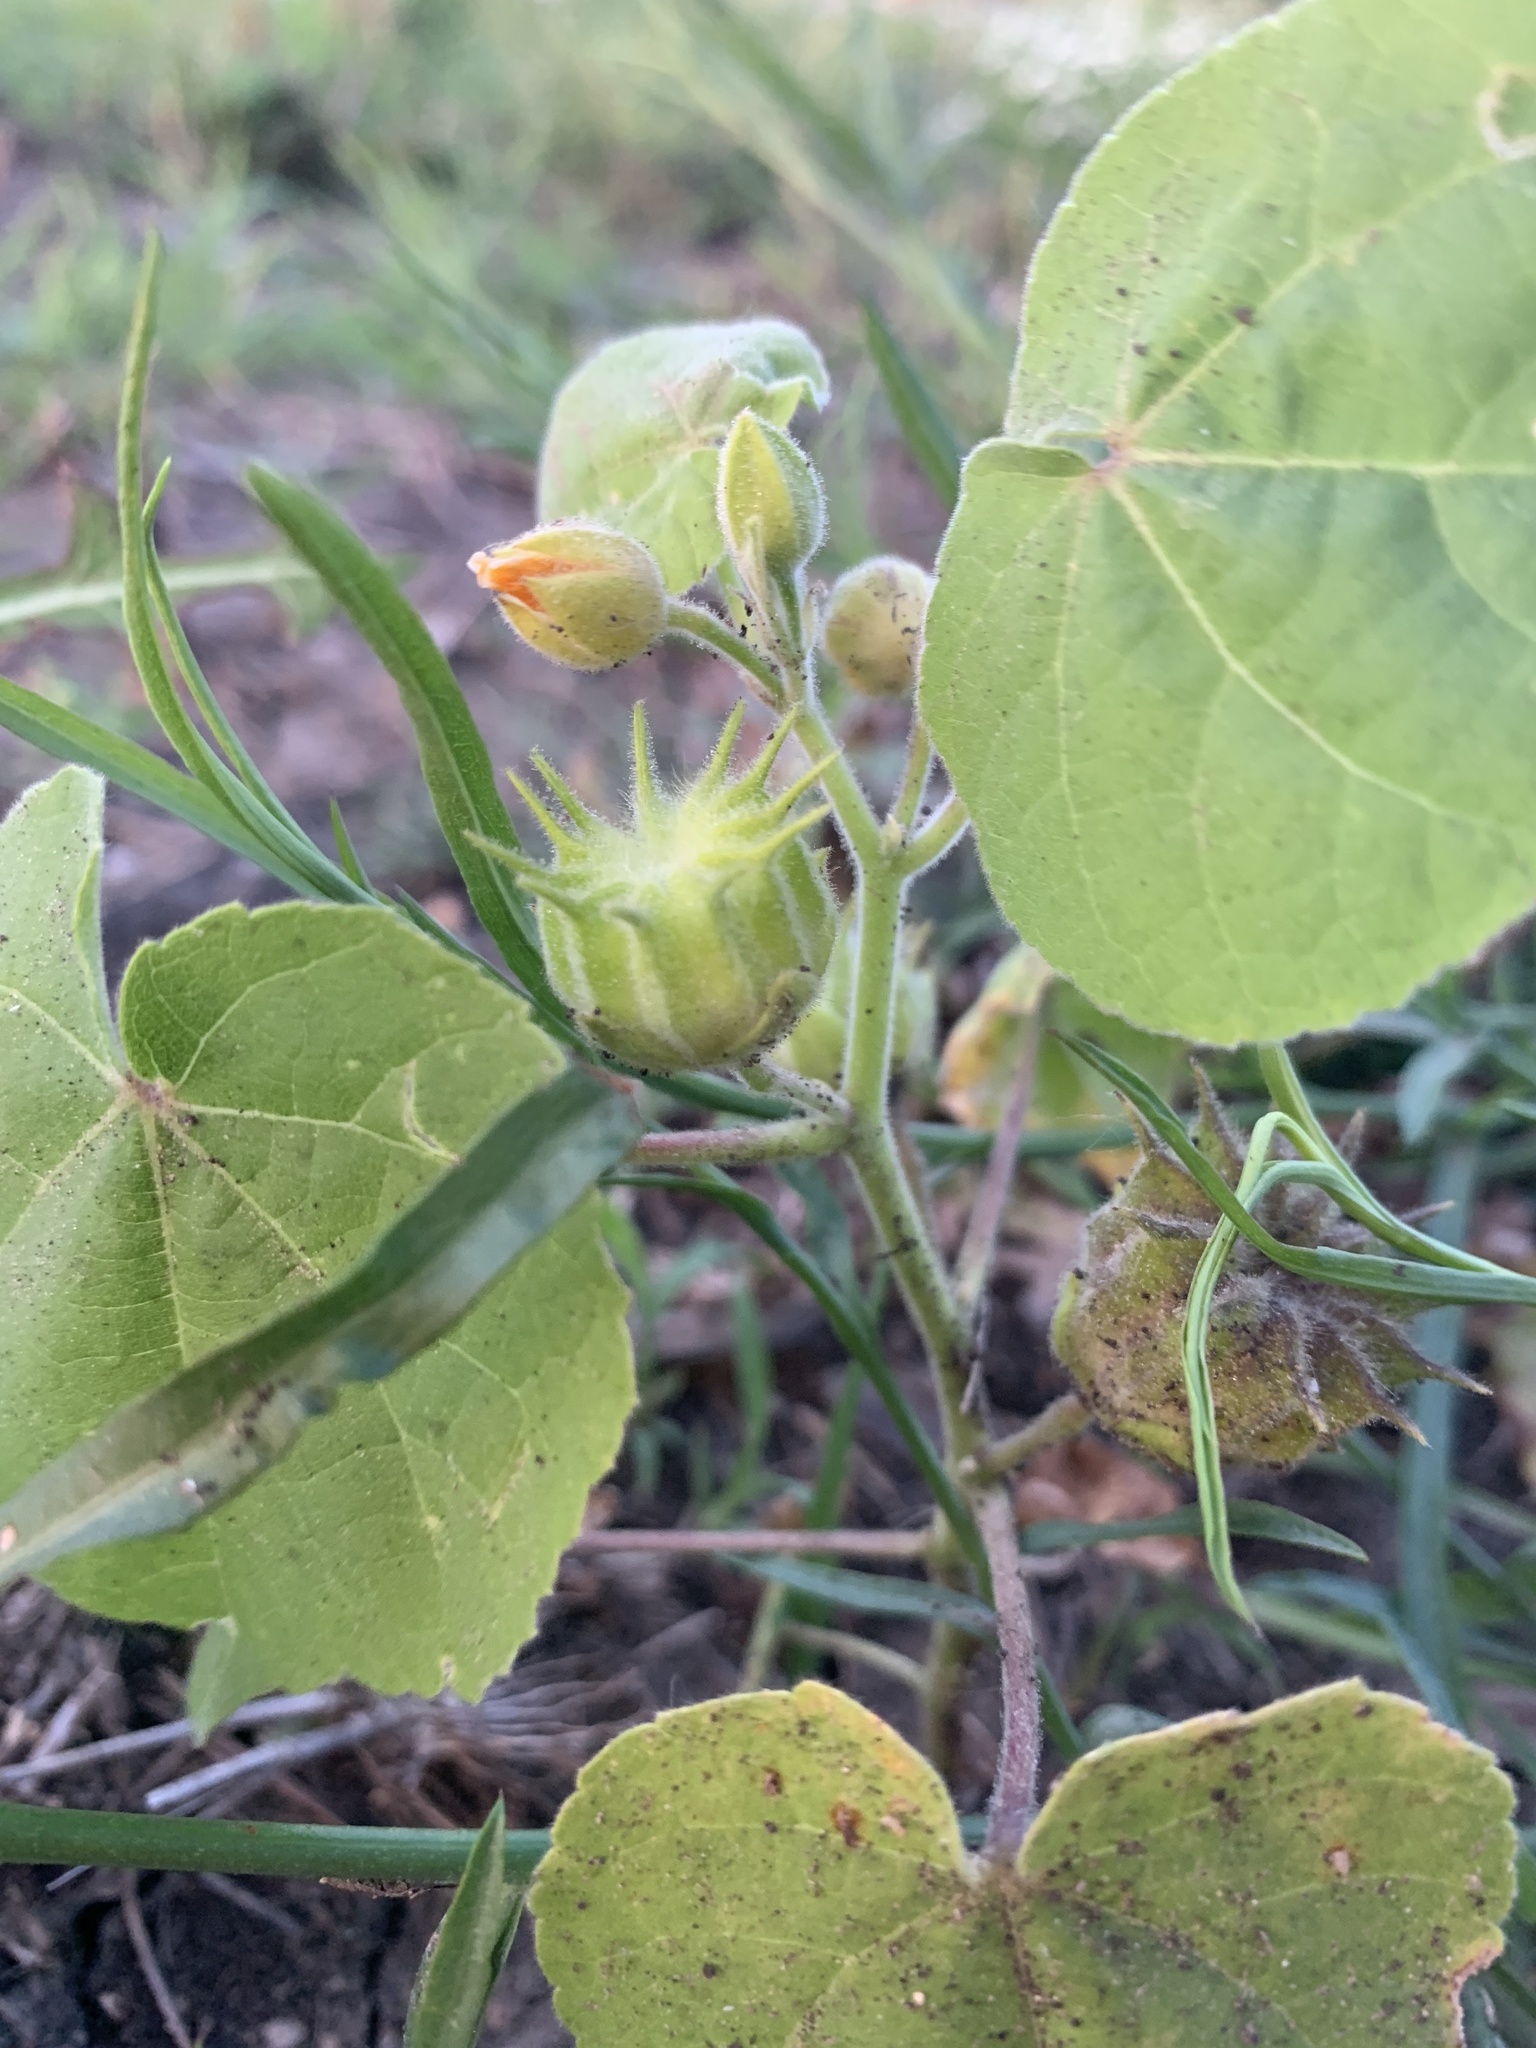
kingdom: Plantae
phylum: Tracheophyta
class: Magnoliopsida
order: Malvales
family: Malvaceae
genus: Abutilon
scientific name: Abutilon theophrasti
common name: Velvetleaf
